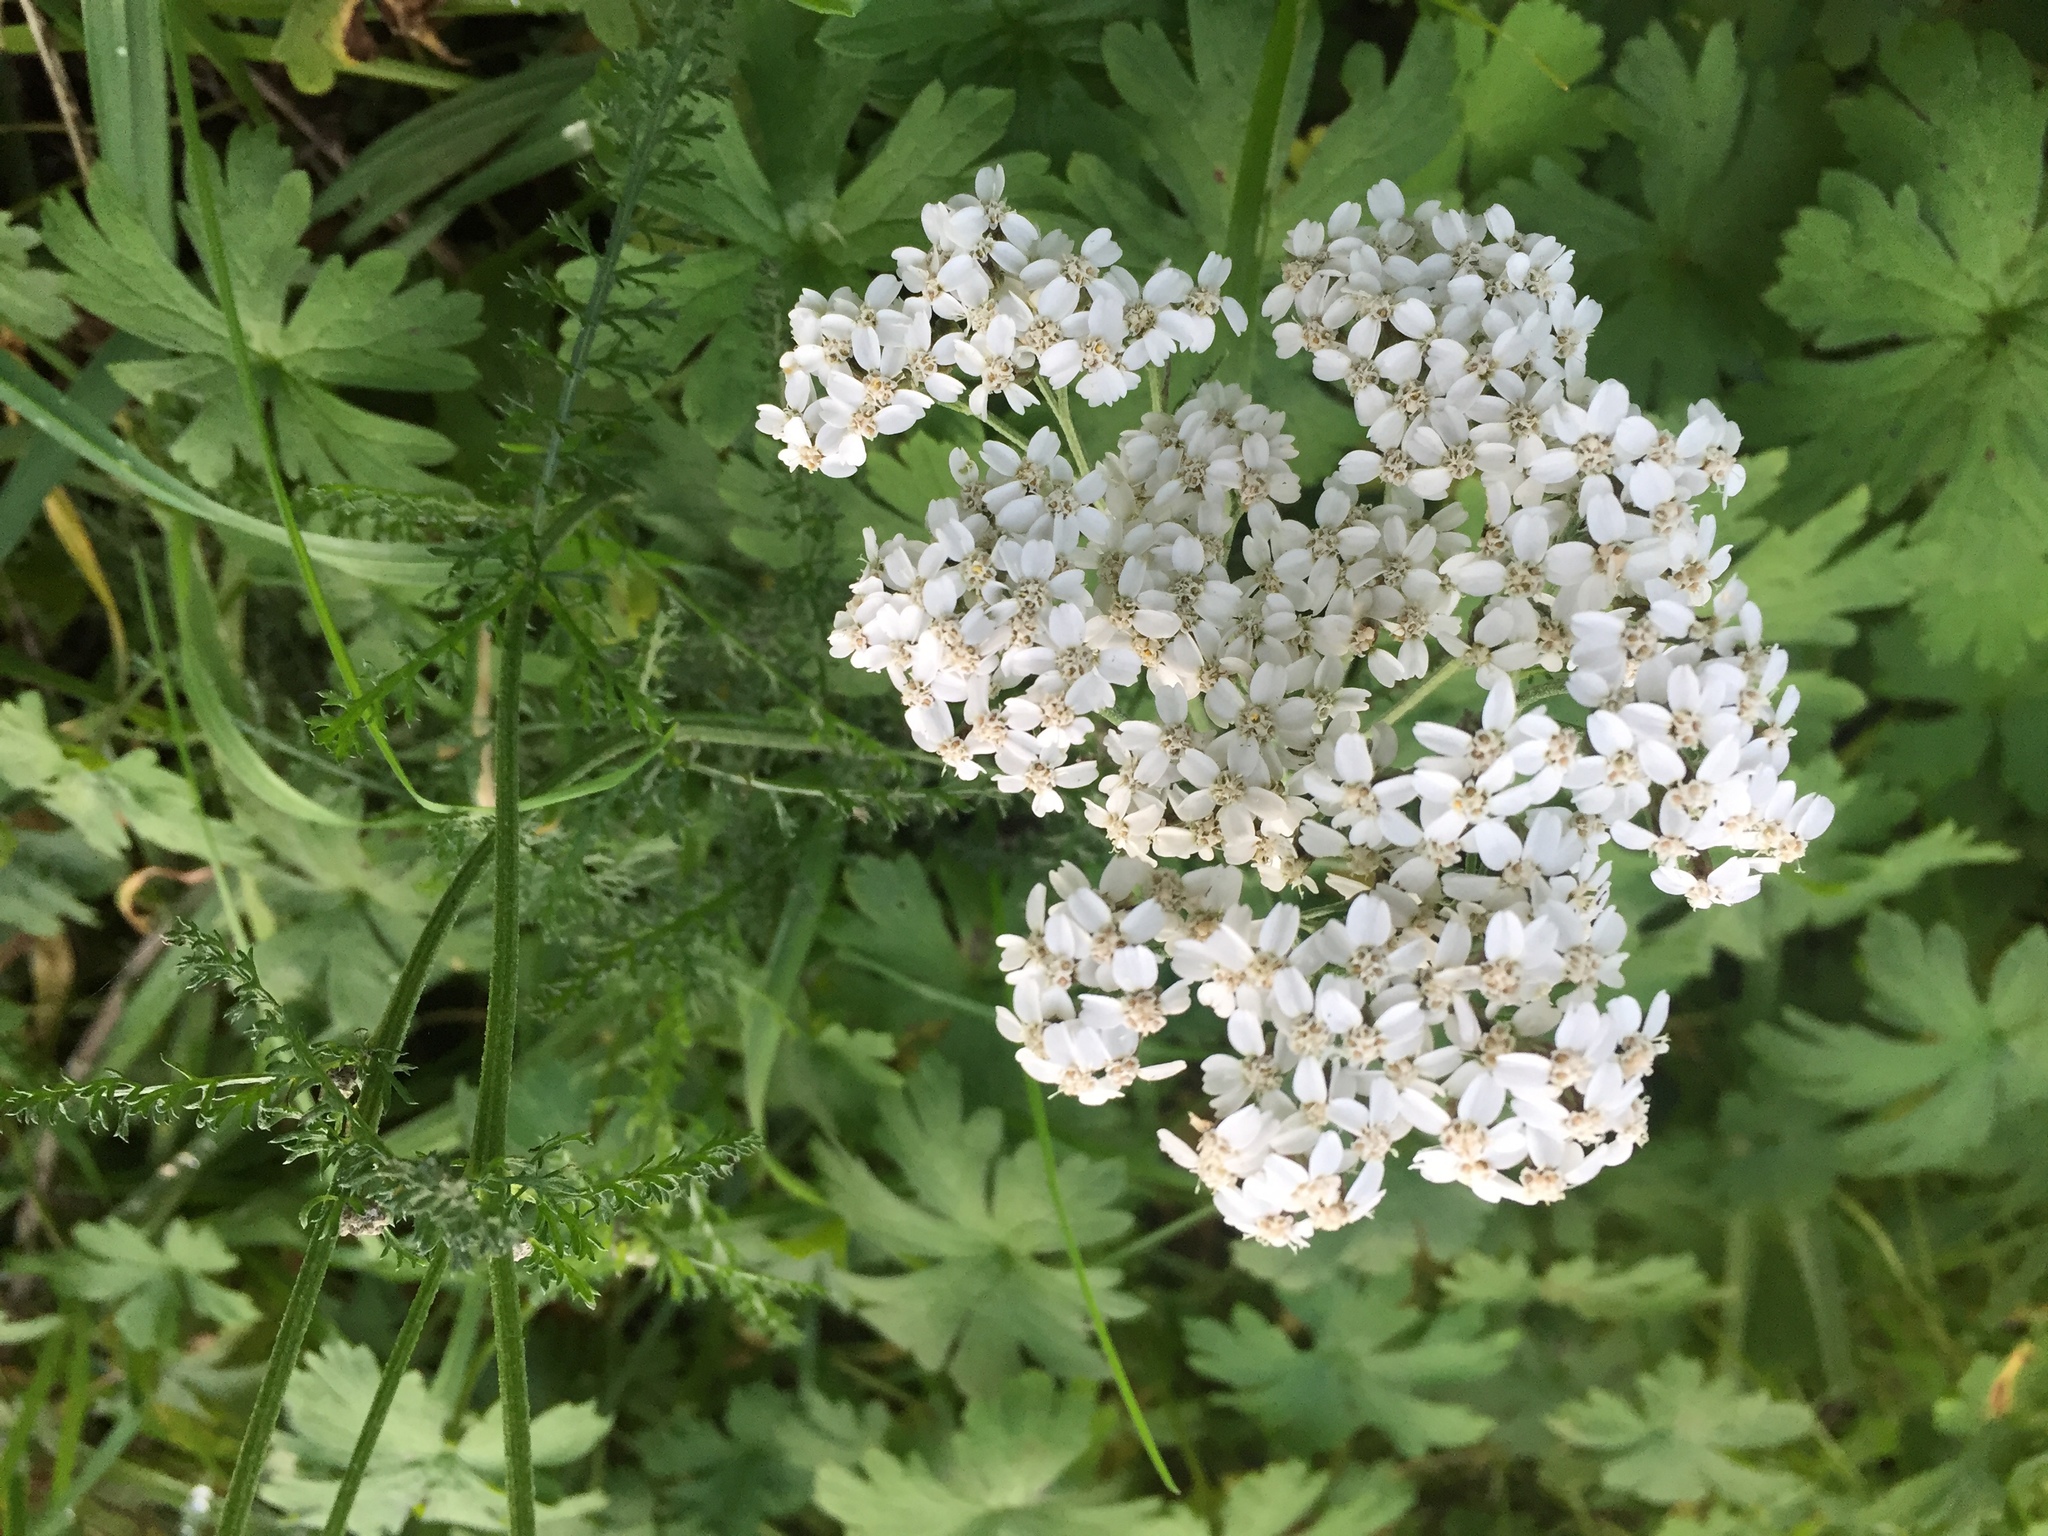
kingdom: Plantae
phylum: Tracheophyta
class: Magnoliopsida
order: Asterales
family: Asteraceae
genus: Achillea
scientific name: Achillea millefolium
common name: Yarrow
